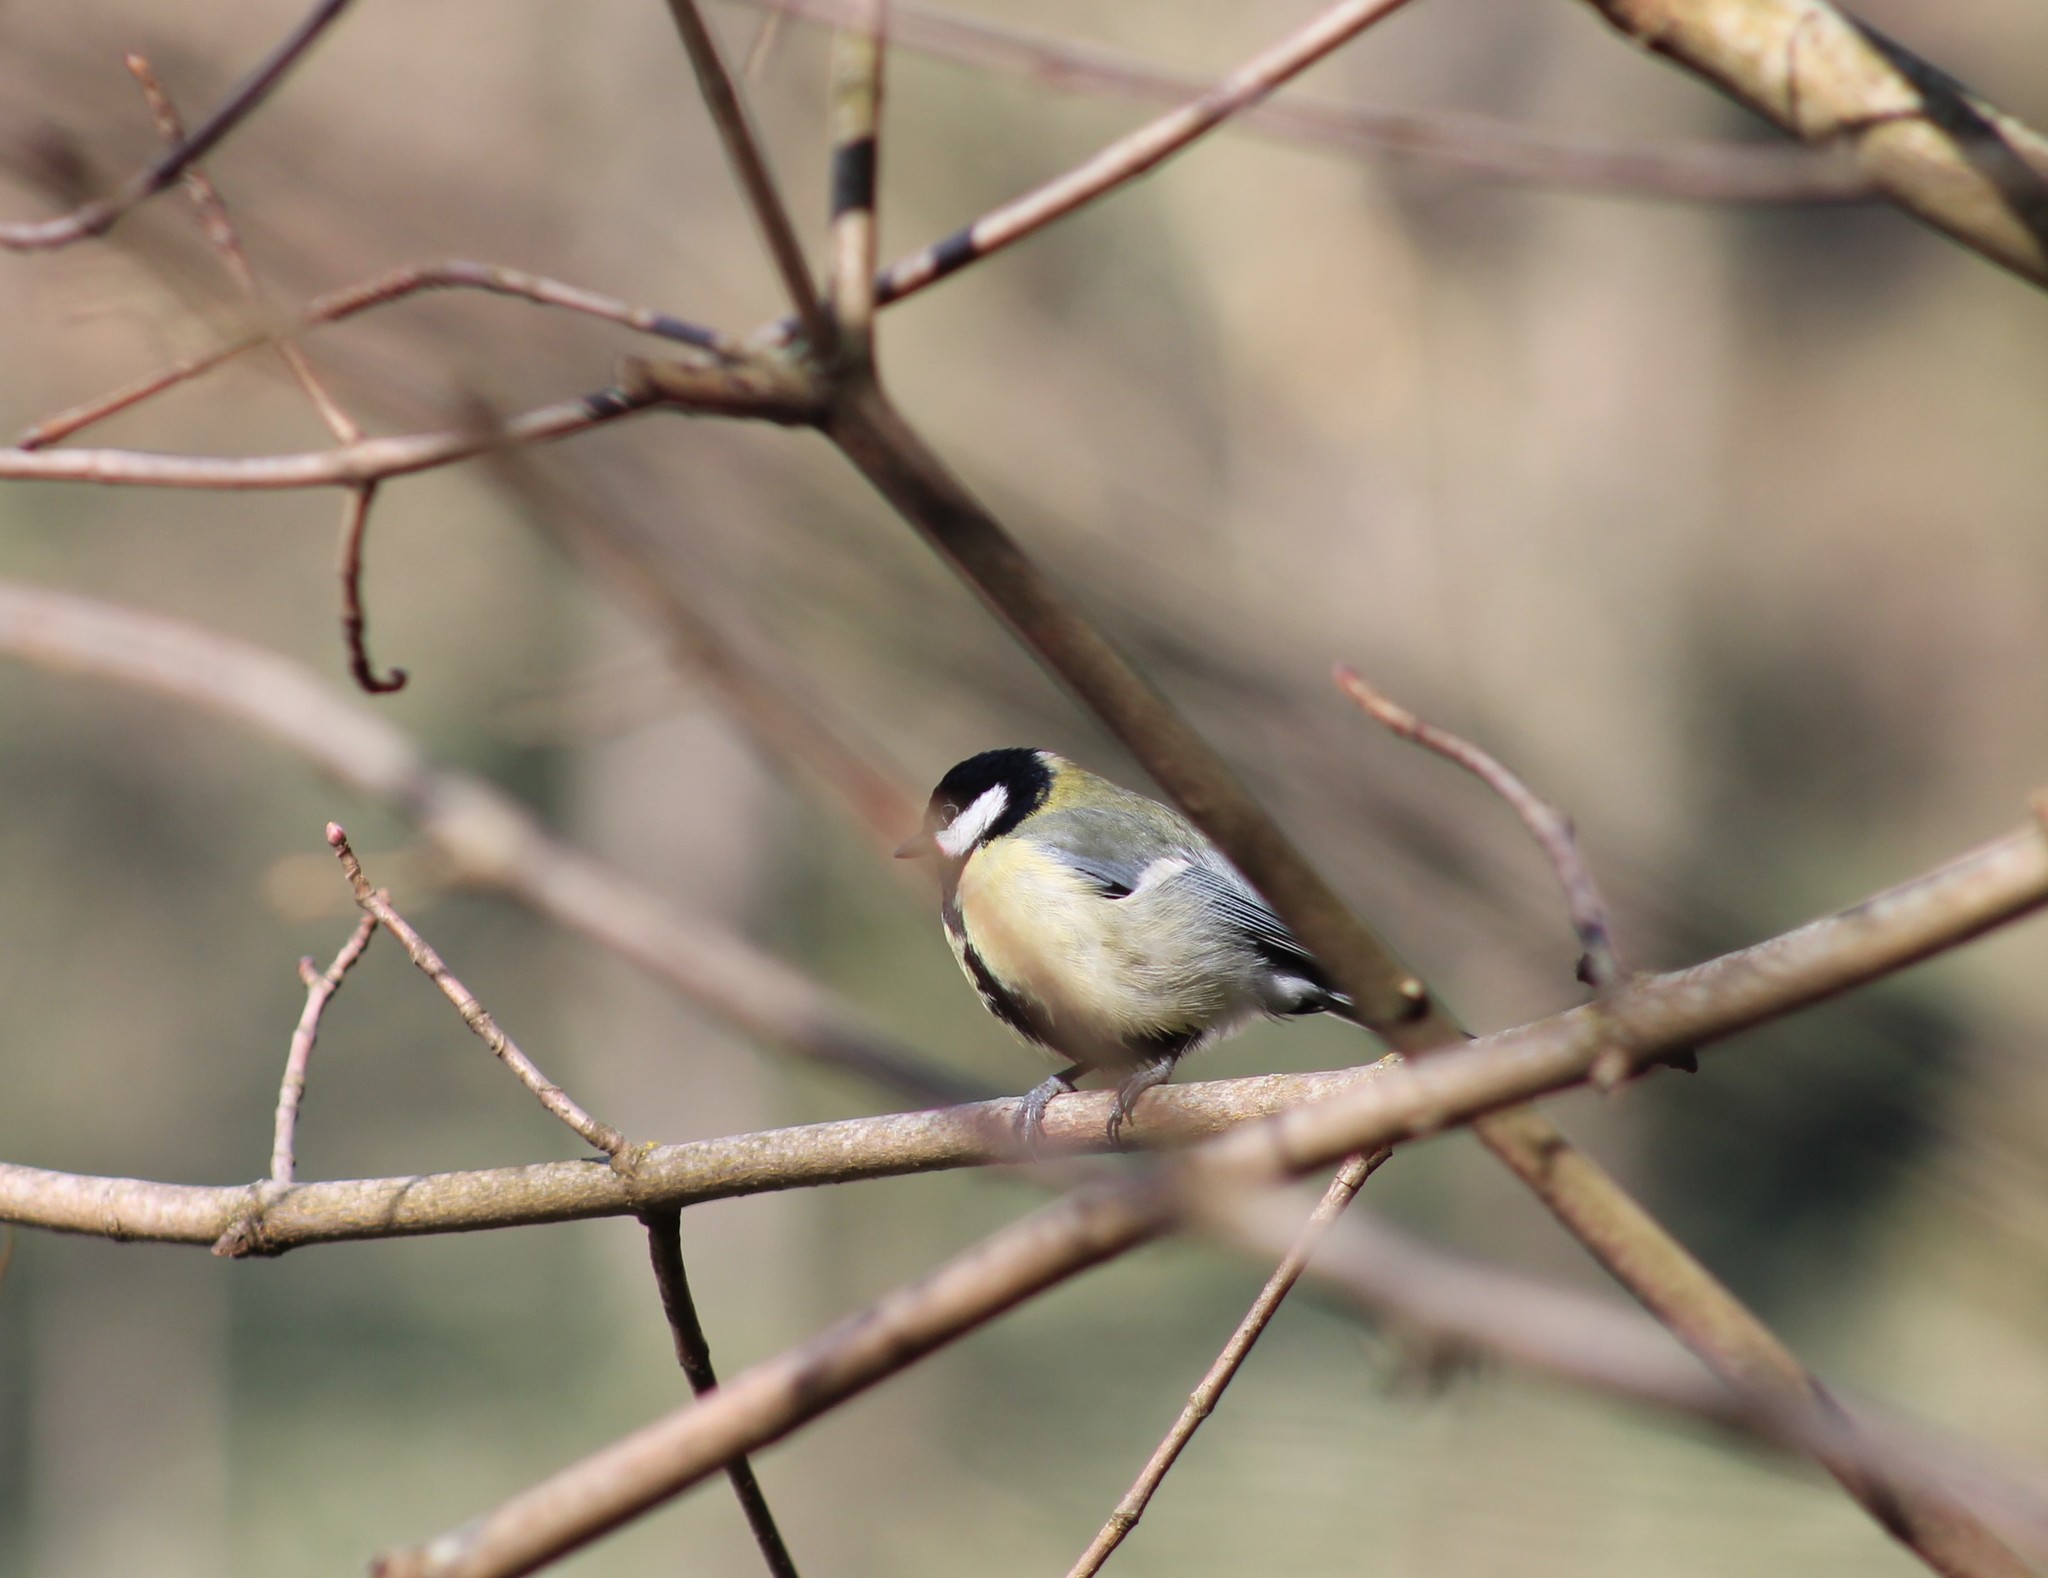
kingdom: Animalia
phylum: Chordata
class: Aves
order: Passeriformes
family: Paridae
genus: Parus
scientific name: Parus major
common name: Great tit
